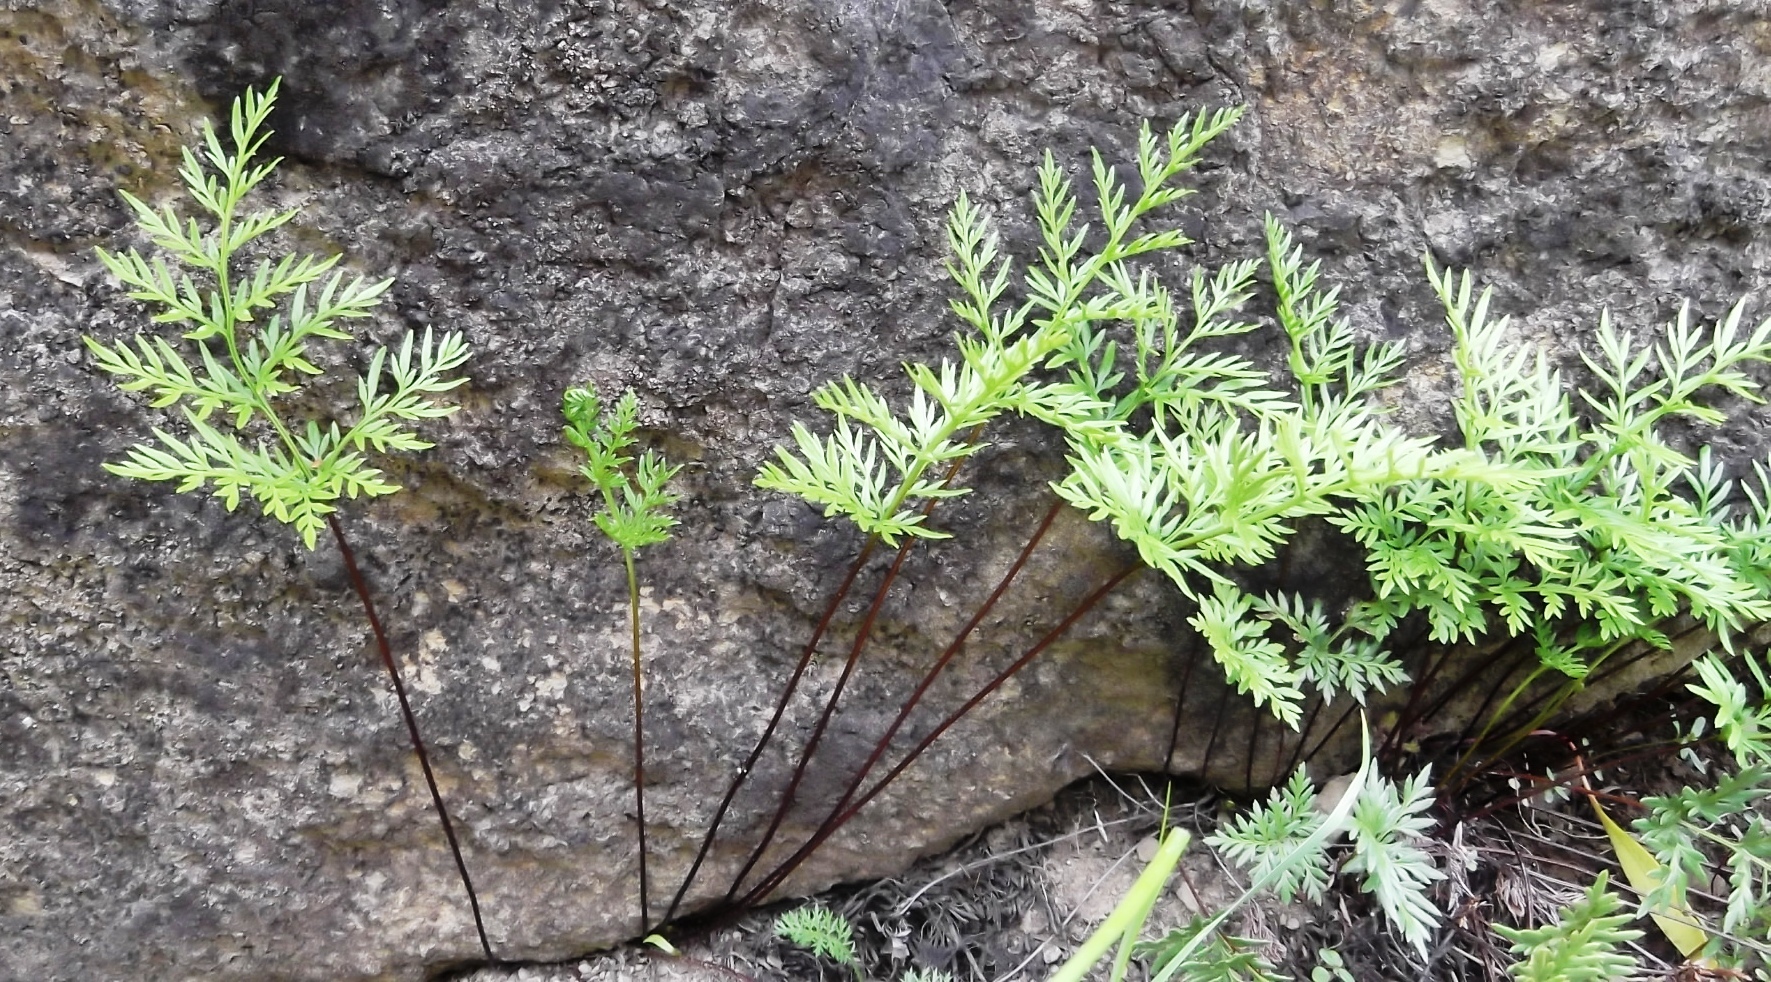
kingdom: Plantae
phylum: Tracheophyta
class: Polypodiopsida
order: Polypodiales
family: Pteridaceae
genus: Aspidotis
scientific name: Aspidotis densa
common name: Indian's dream
